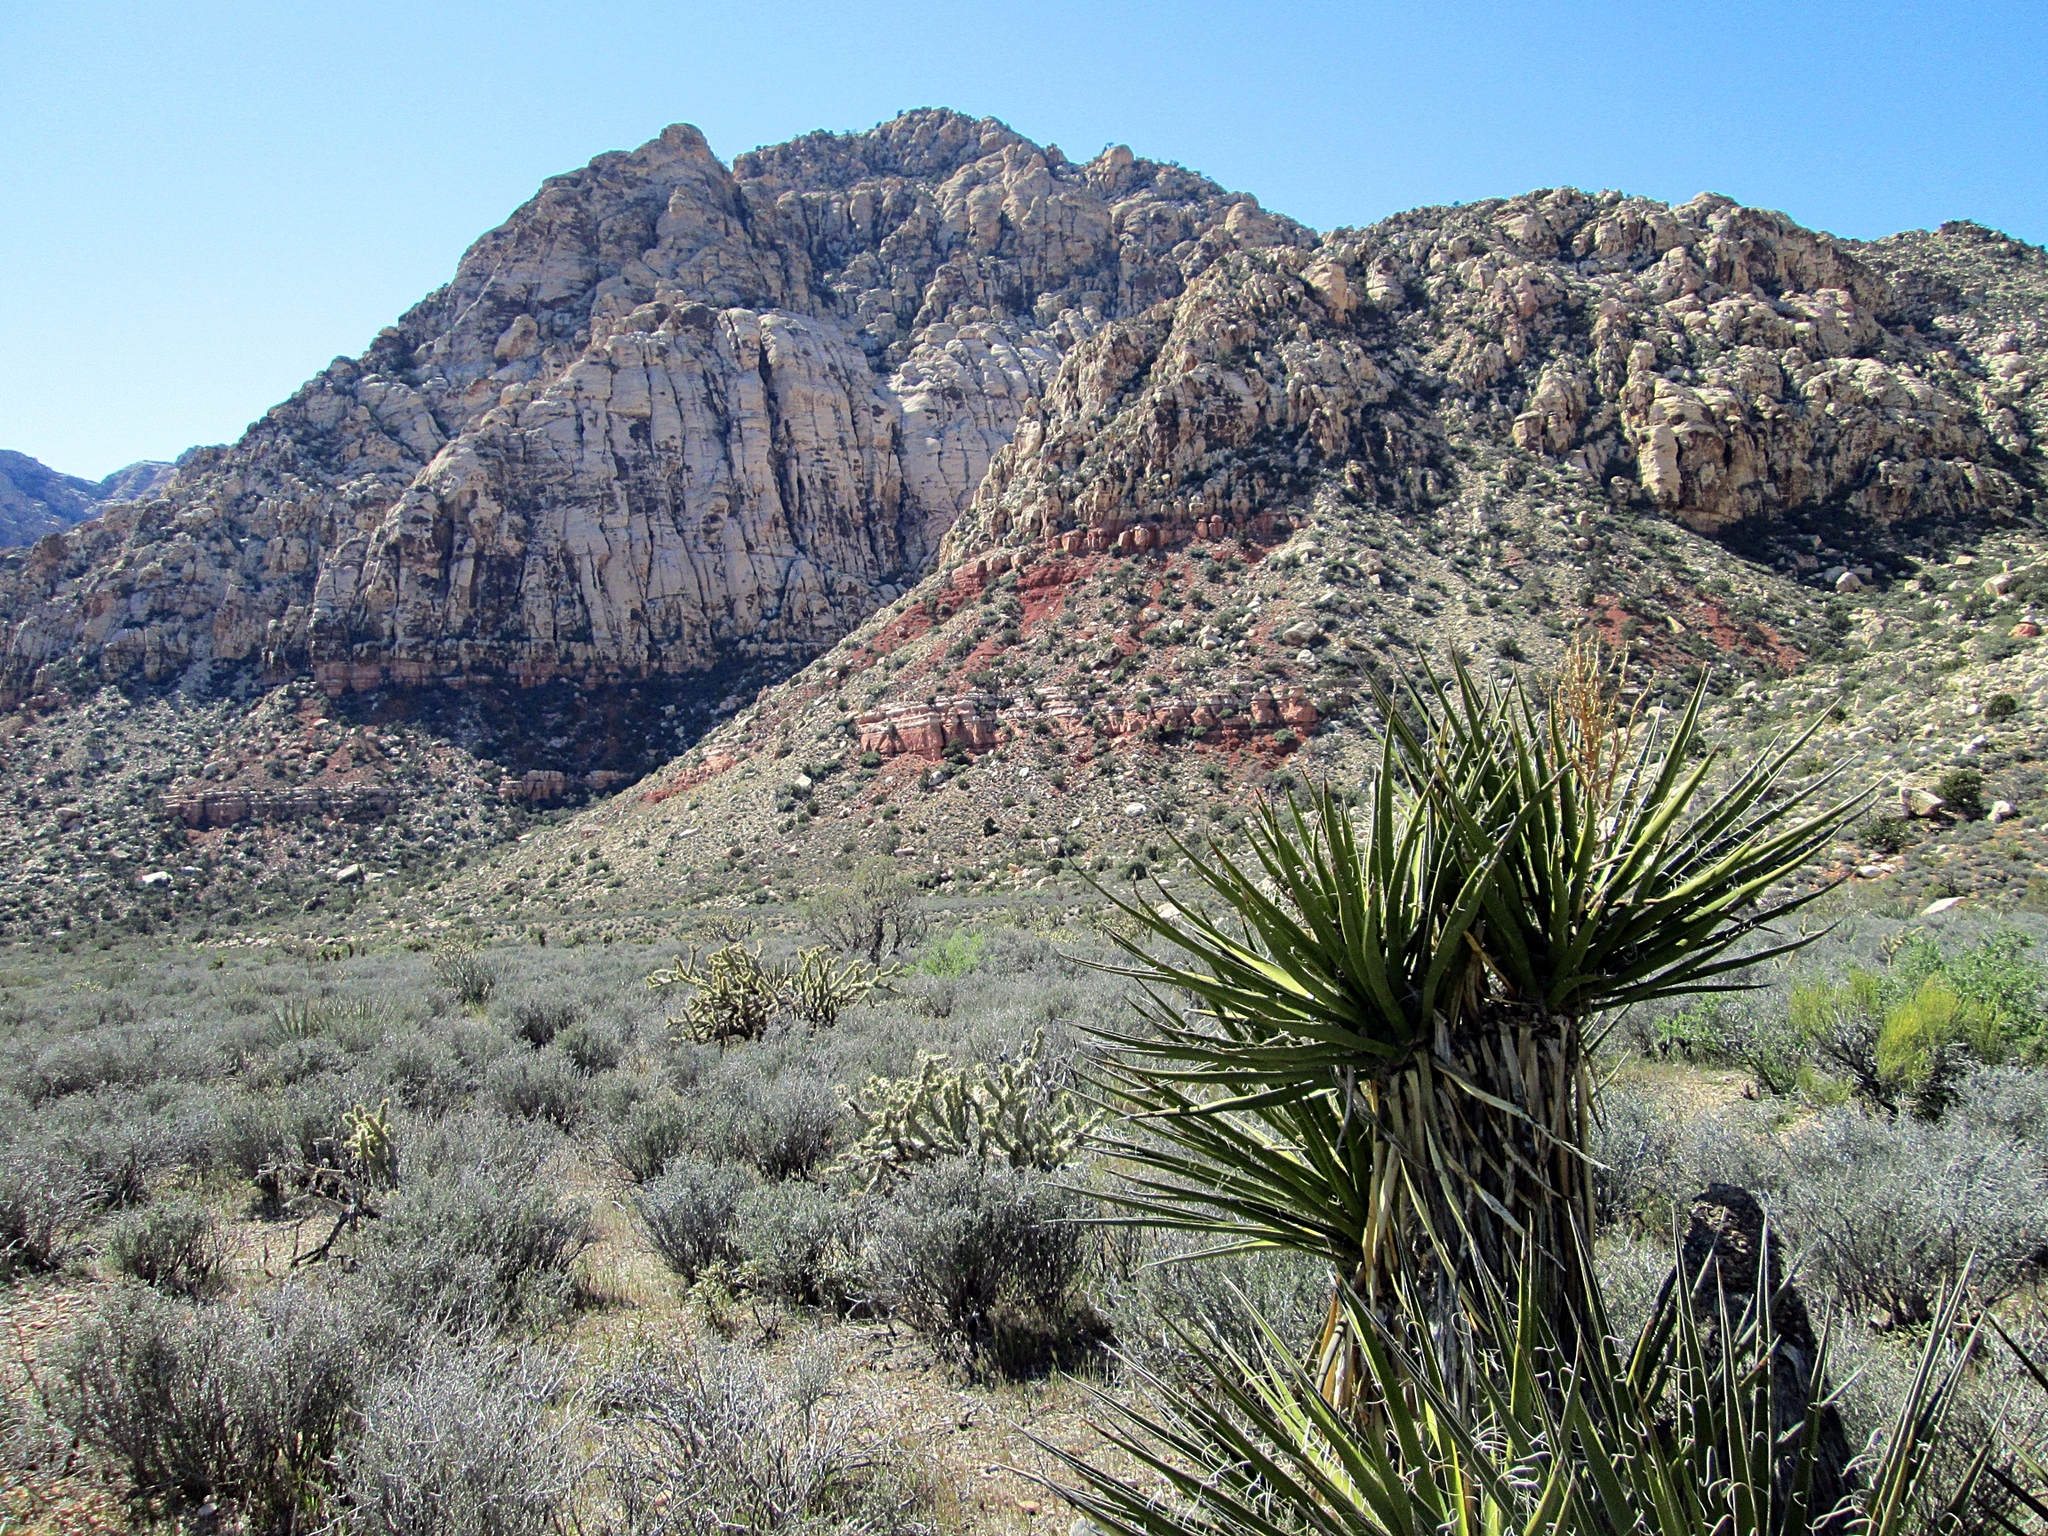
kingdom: Plantae
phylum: Tracheophyta
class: Liliopsida
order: Asparagales
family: Asparagaceae
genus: Yucca
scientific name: Yucca schidigera
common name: Mojave yucca
